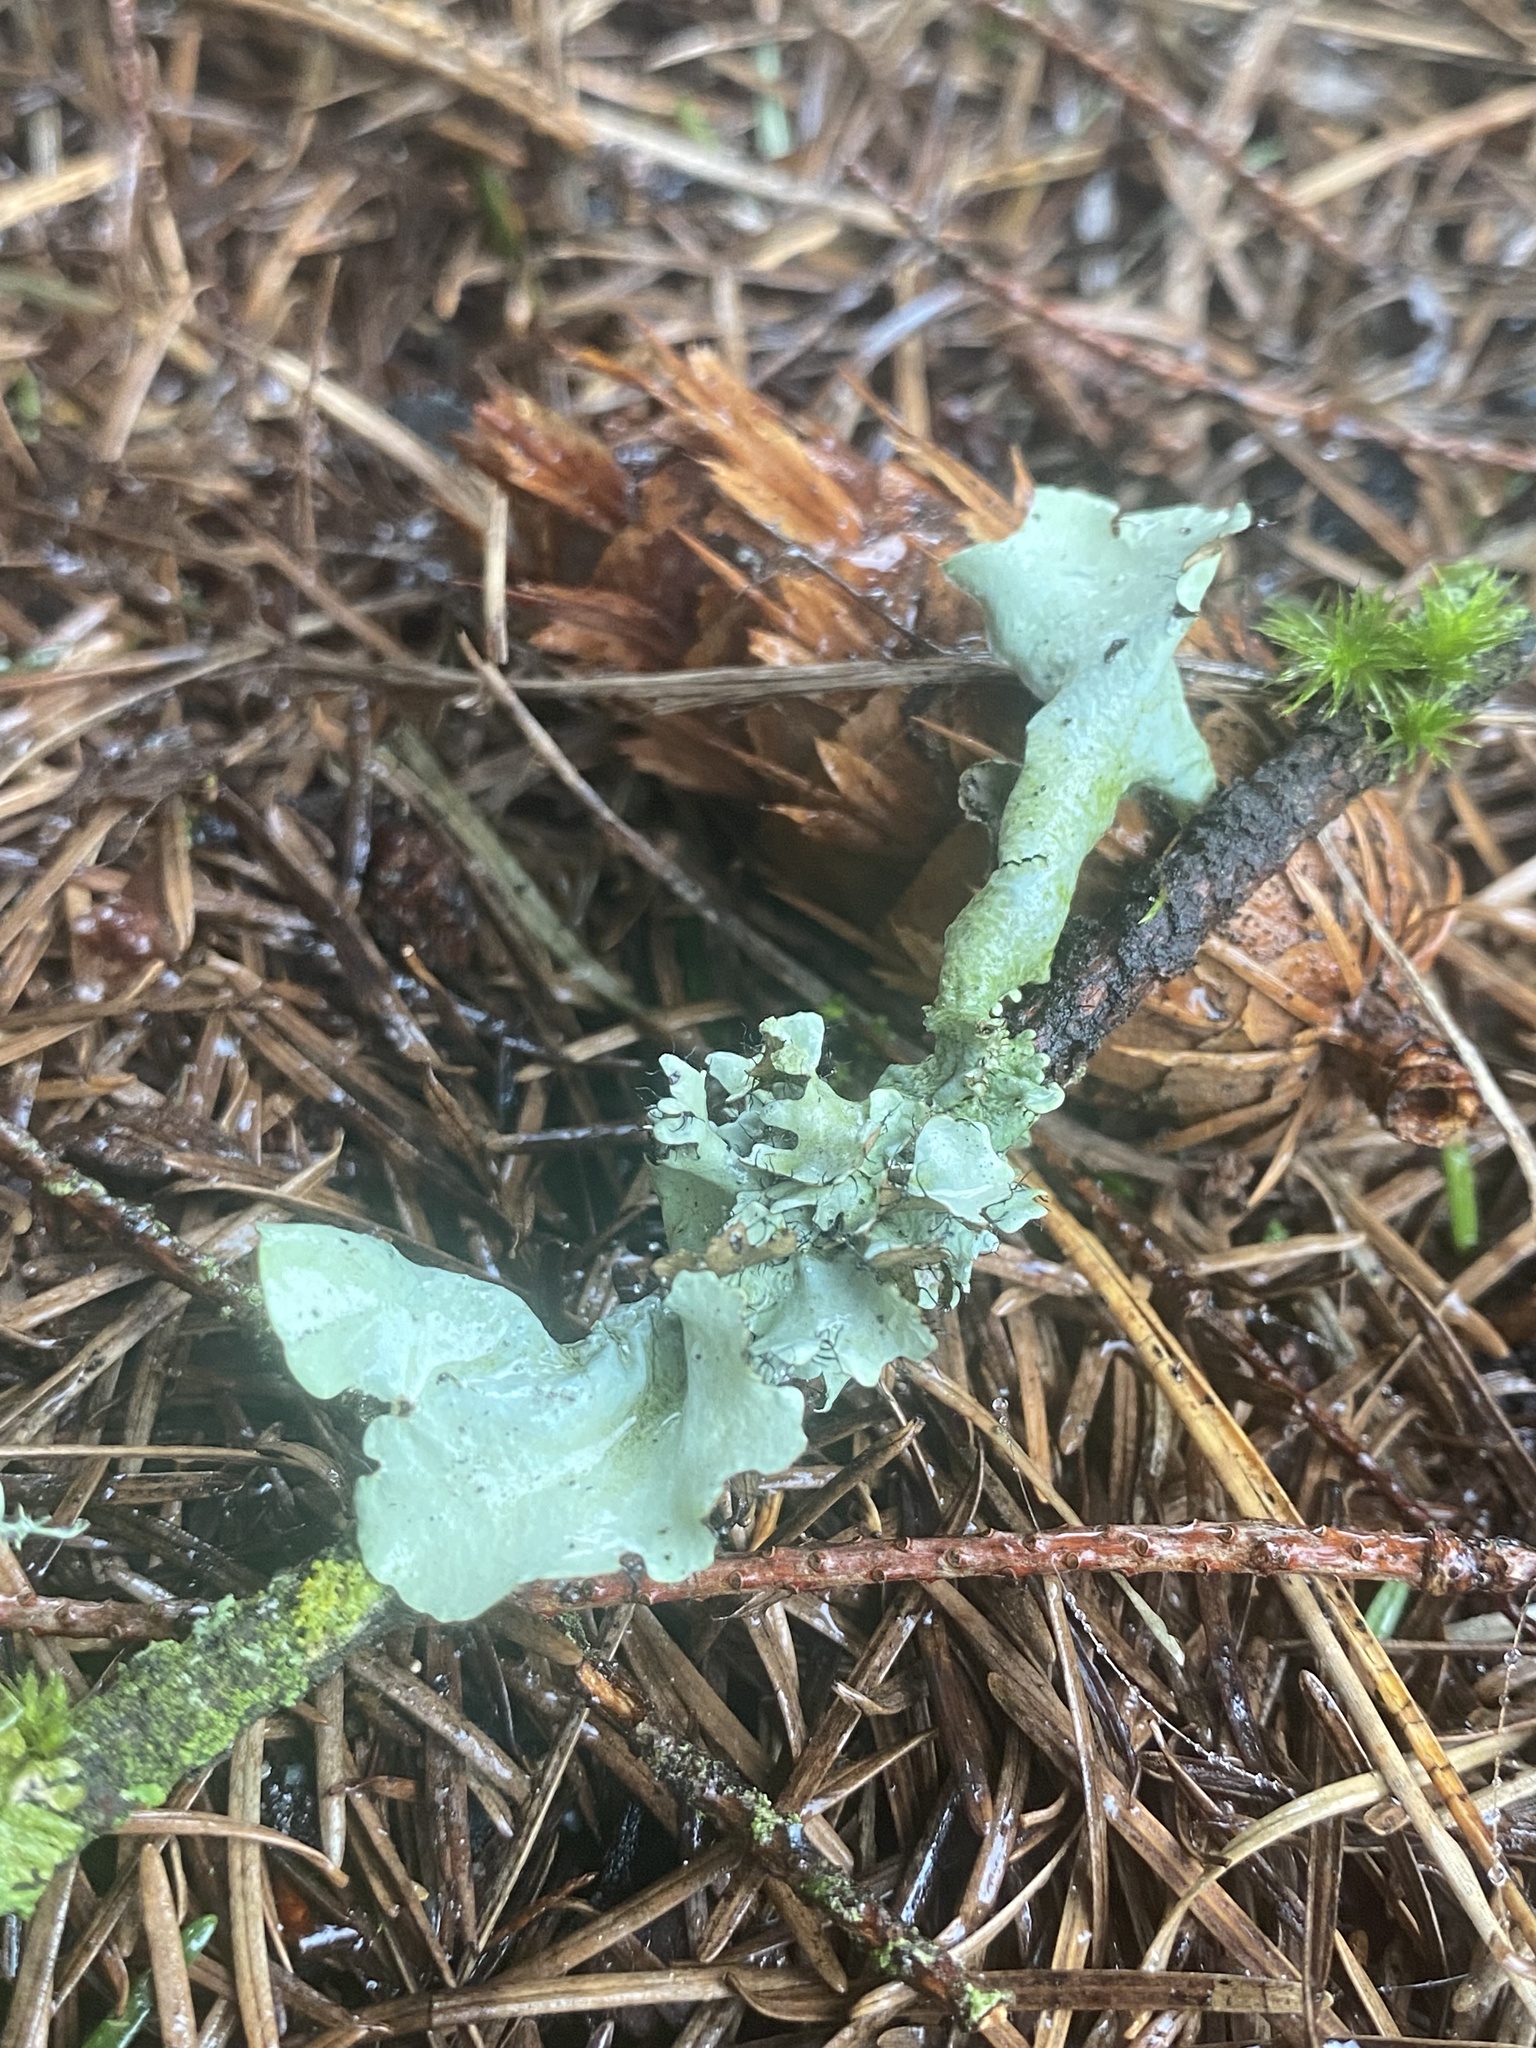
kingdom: Fungi
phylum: Ascomycota
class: Lecanoromycetes
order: Lecanorales
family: Parmeliaceae
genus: Parmotrema
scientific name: Parmotrema arnoldii
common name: Arnold's parmotrema lichen
